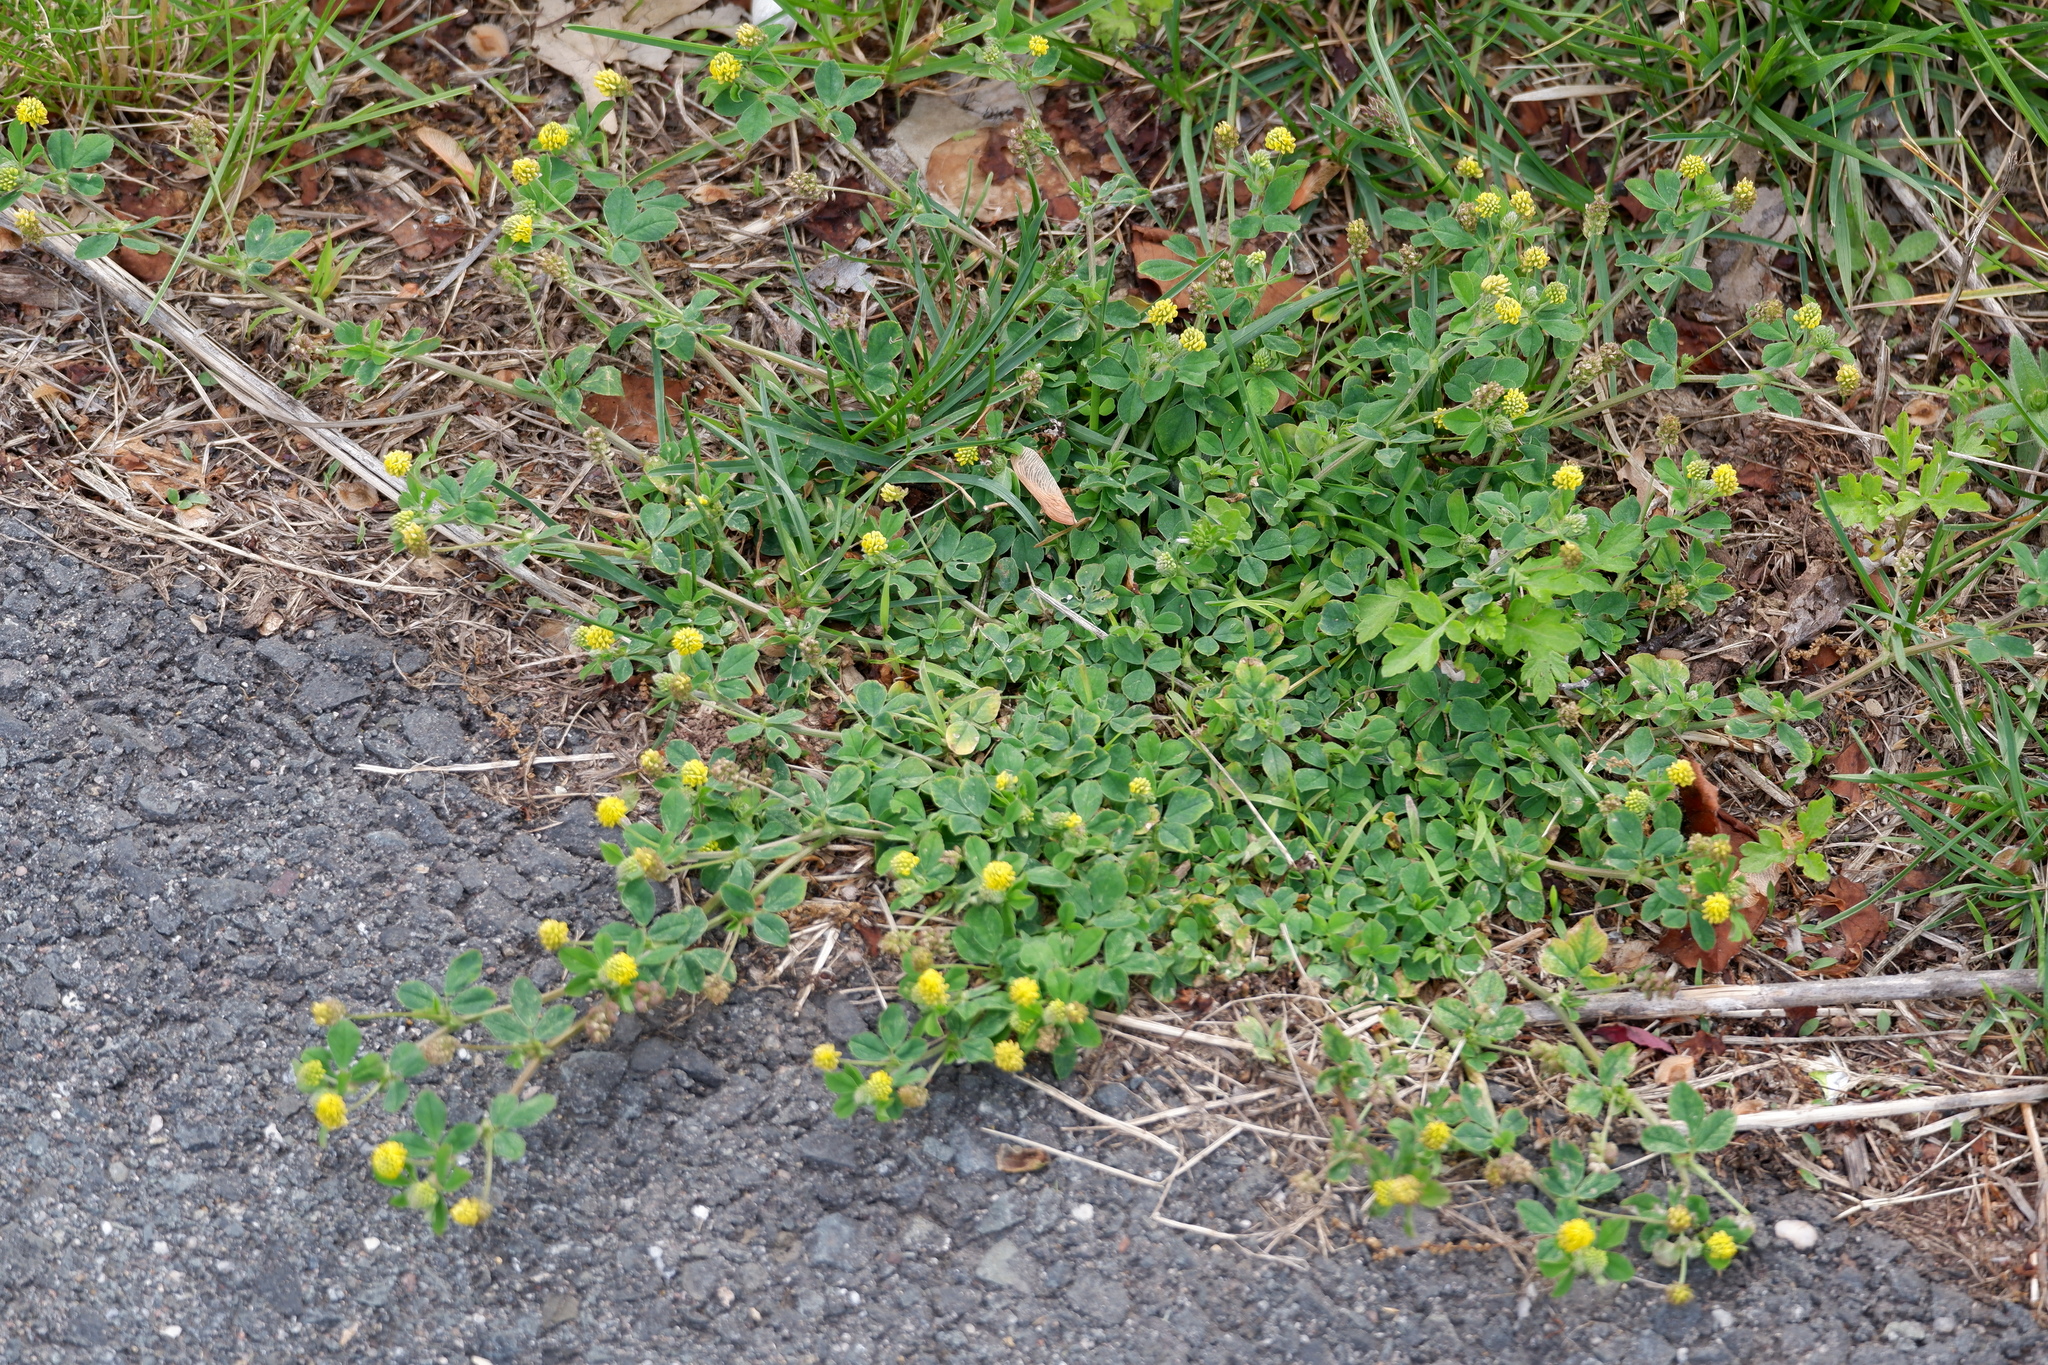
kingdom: Plantae
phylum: Tracheophyta
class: Magnoliopsida
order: Fabales
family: Fabaceae
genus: Medicago
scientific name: Medicago lupulina
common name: Black medick
